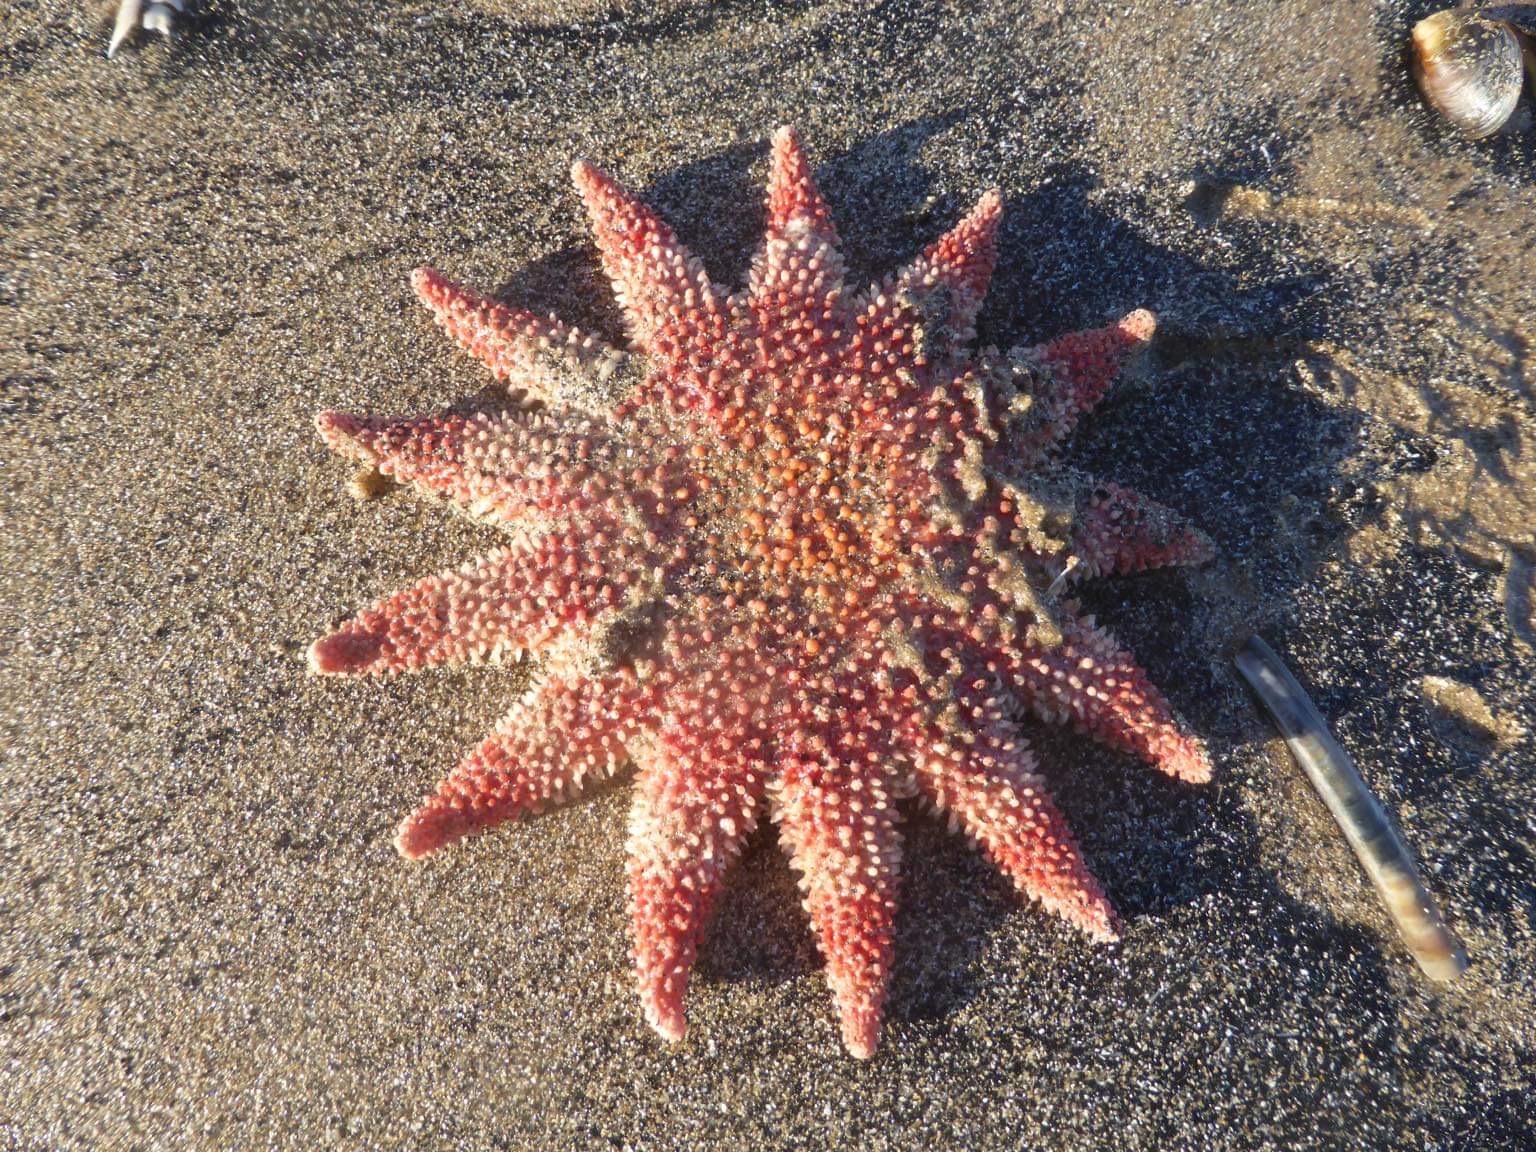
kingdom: Animalia
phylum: Echinodermata
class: Asteroidea
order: Valvatida
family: Solasteridae
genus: Crossaster
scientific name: Crossaster papposus
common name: Common sun star
